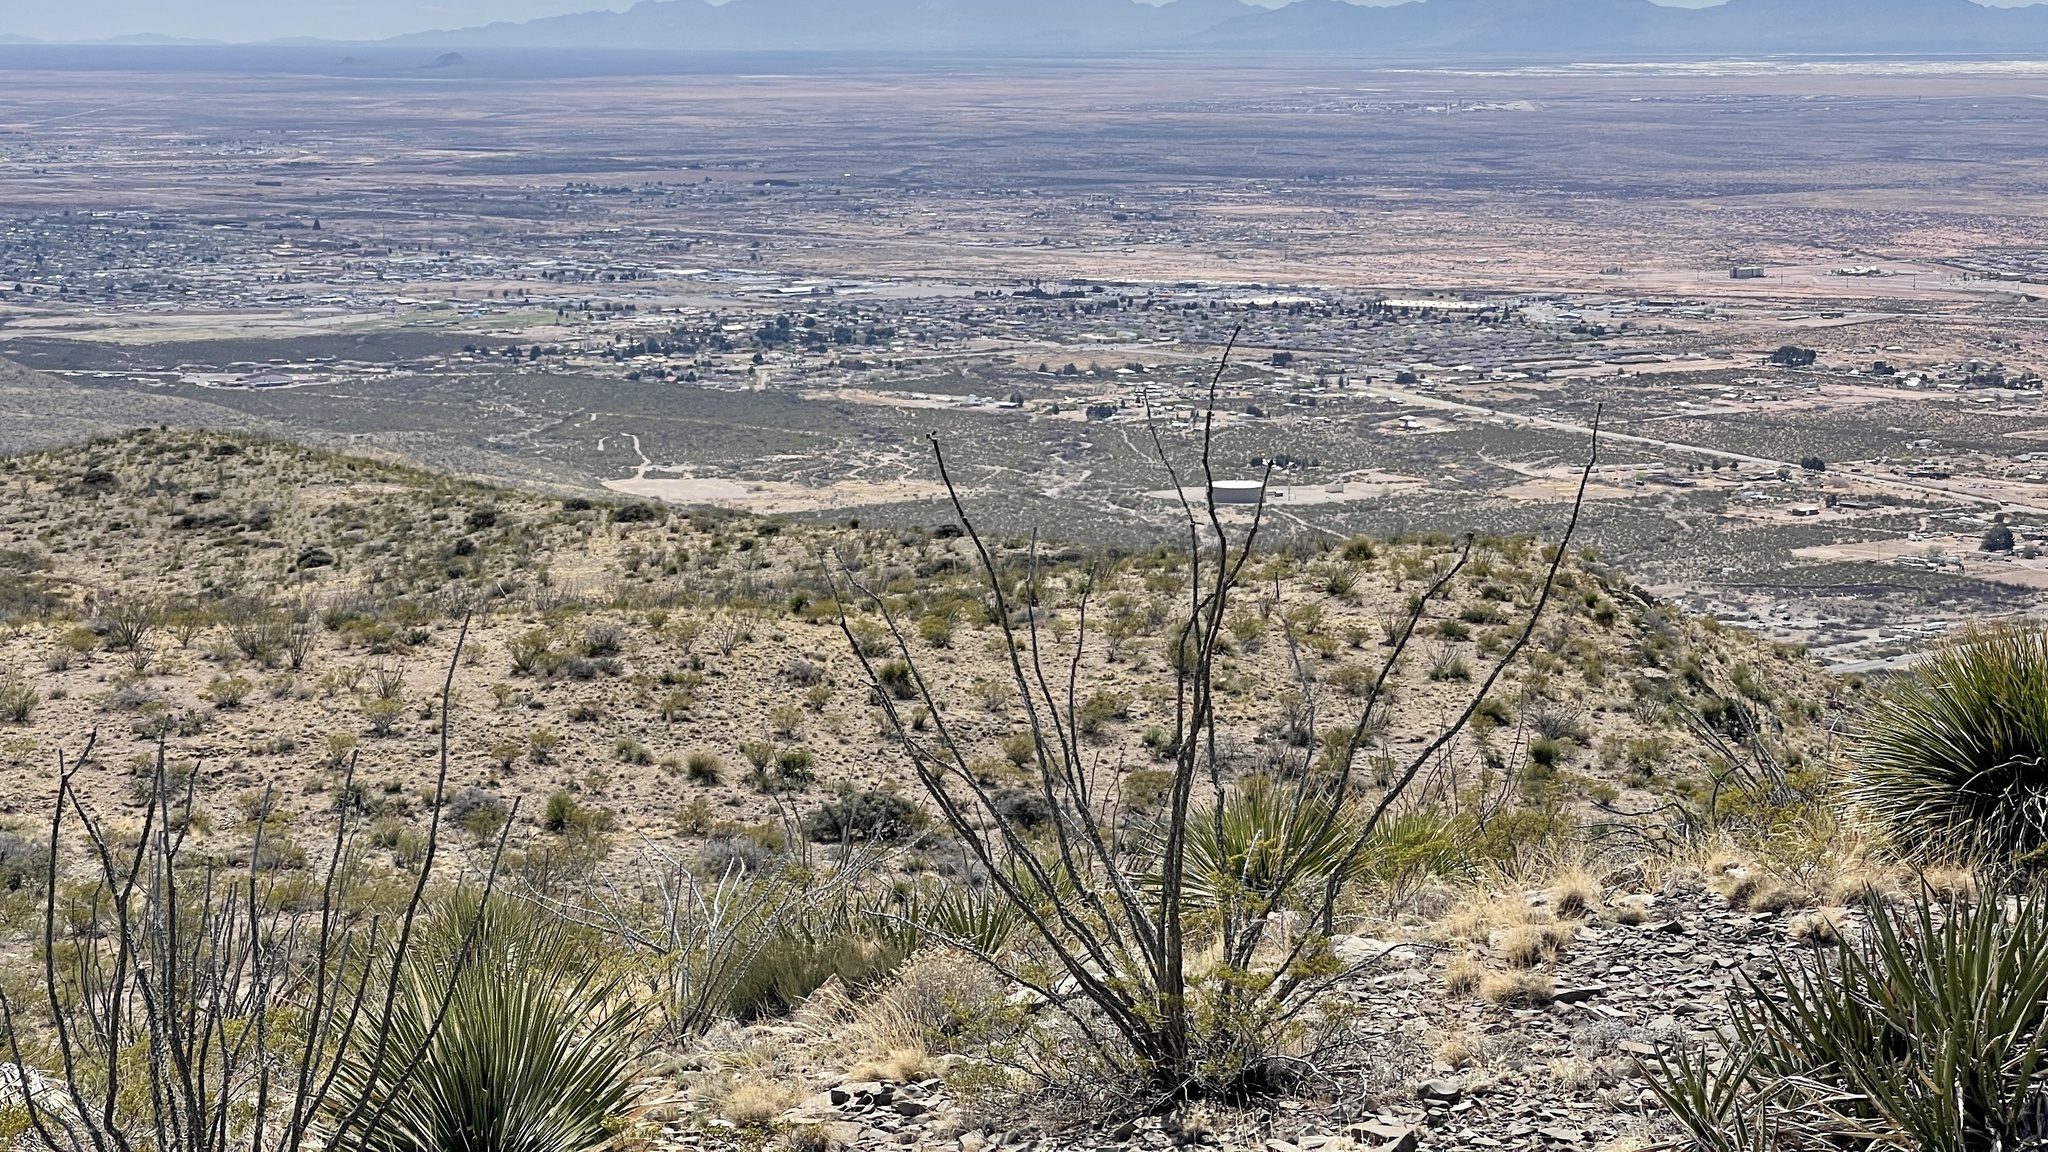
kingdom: Plantae
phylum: Tracheophyta
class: Magnoliopsida
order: Ericales
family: Fouquieriaceae
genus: Fouquieria
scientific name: Fouquieria splendens
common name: Vine-cactus
